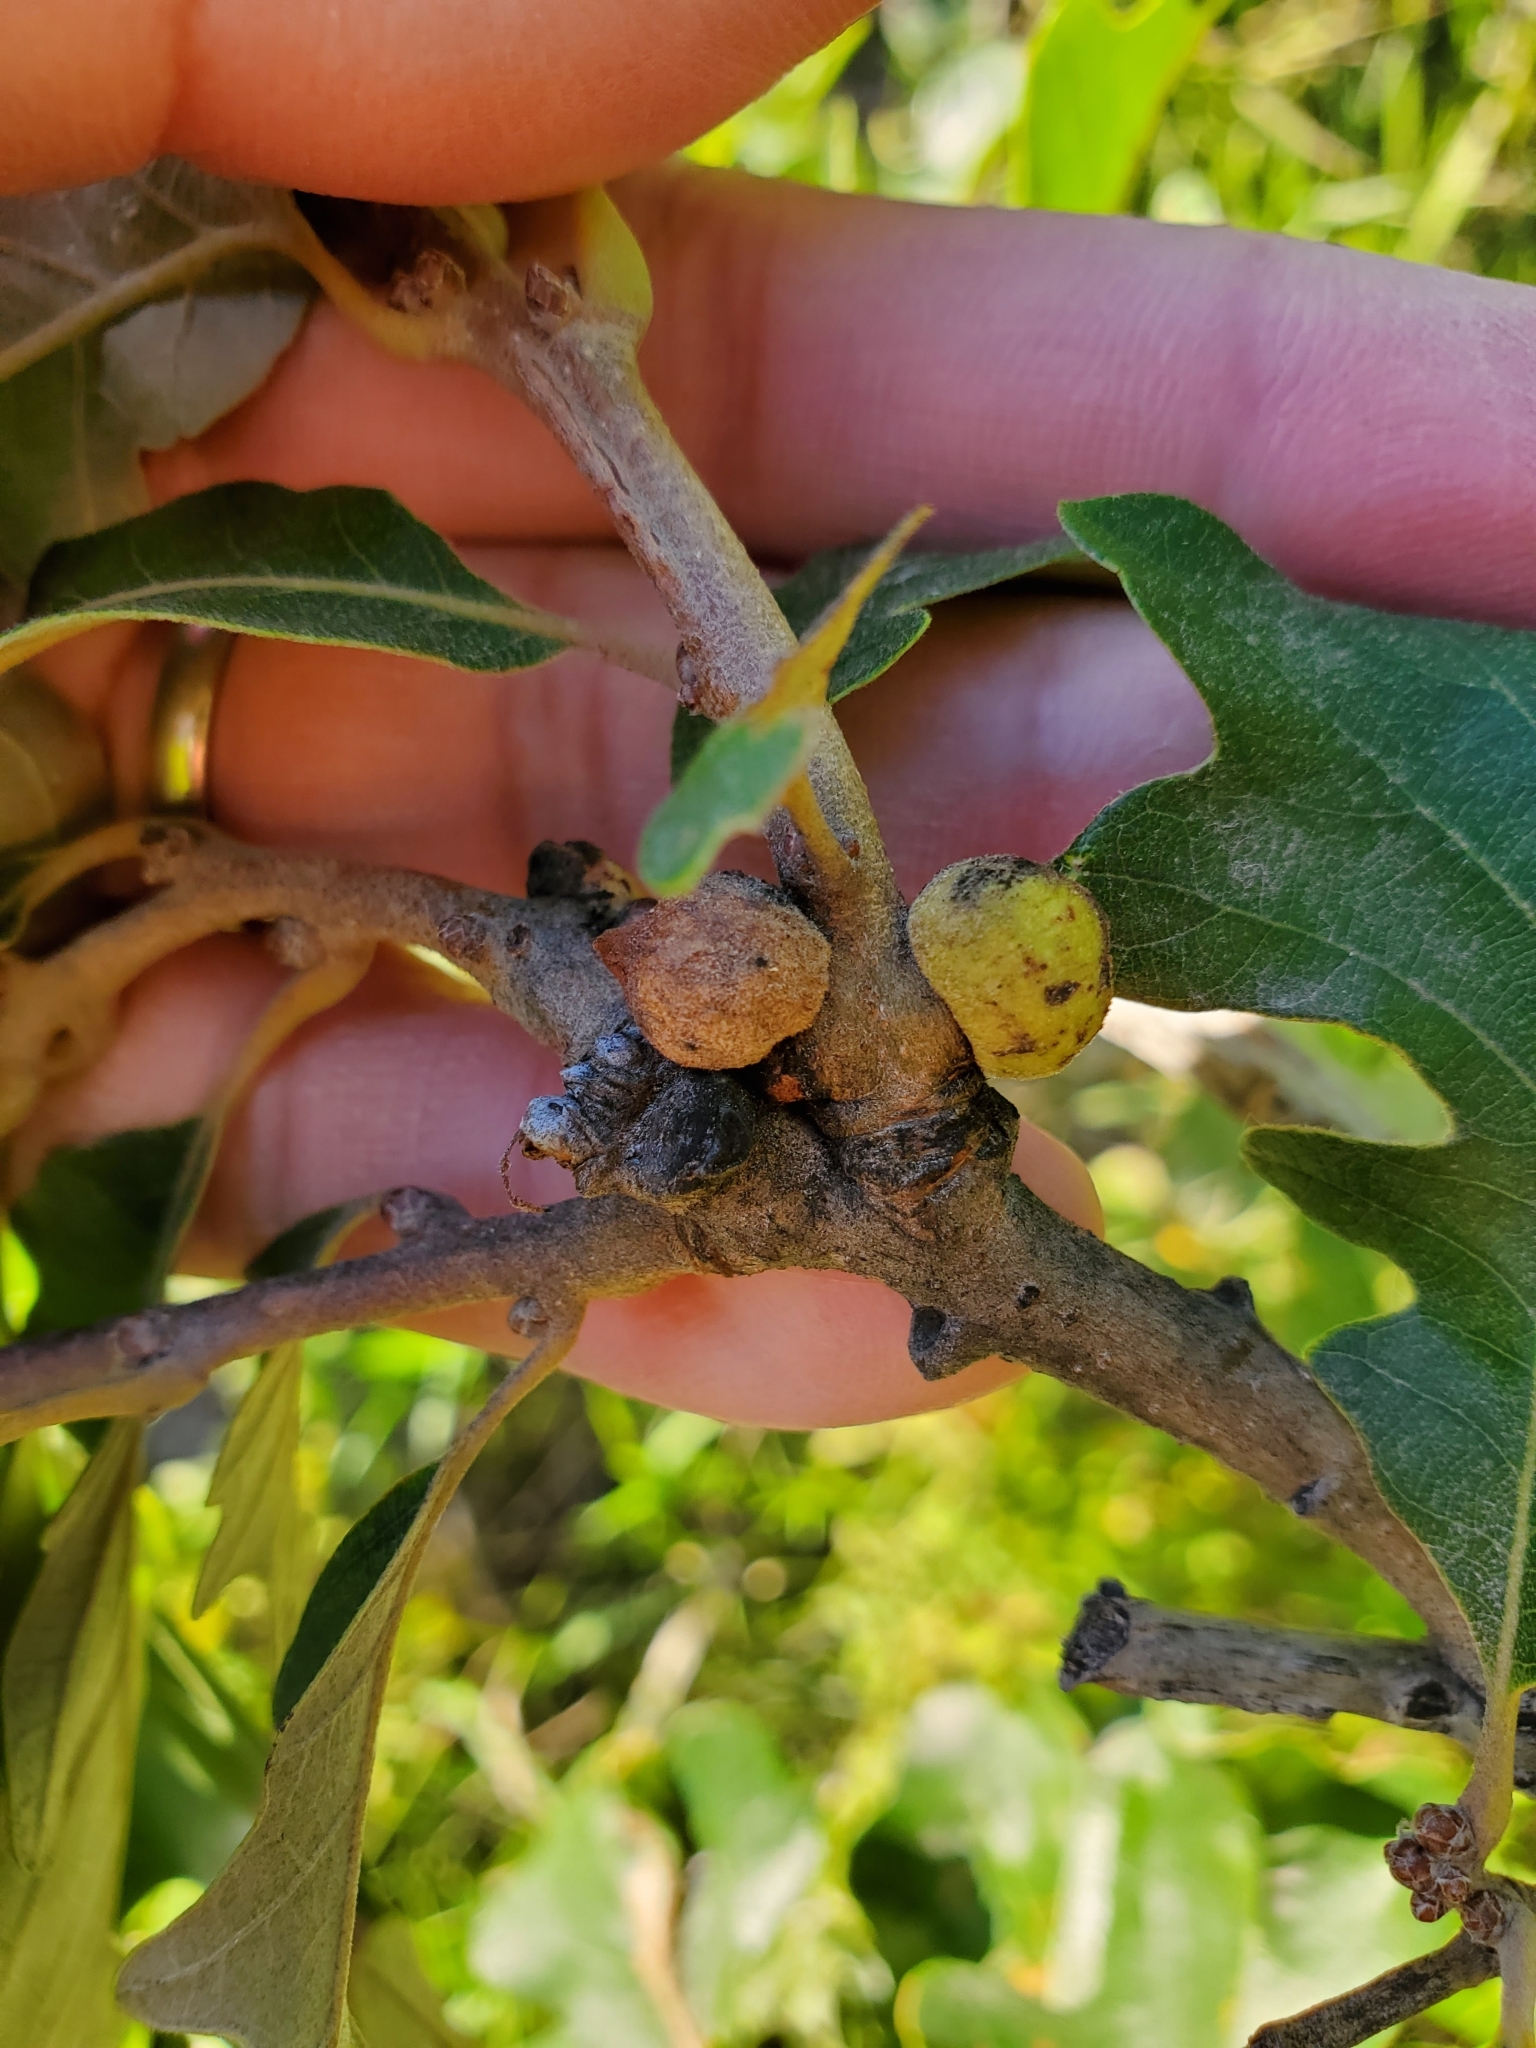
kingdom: Animalia
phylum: Arthropoda
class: Insecta
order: Hymenoptera
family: Cynipidae
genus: Disholcaspis
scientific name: Disholcaspis
